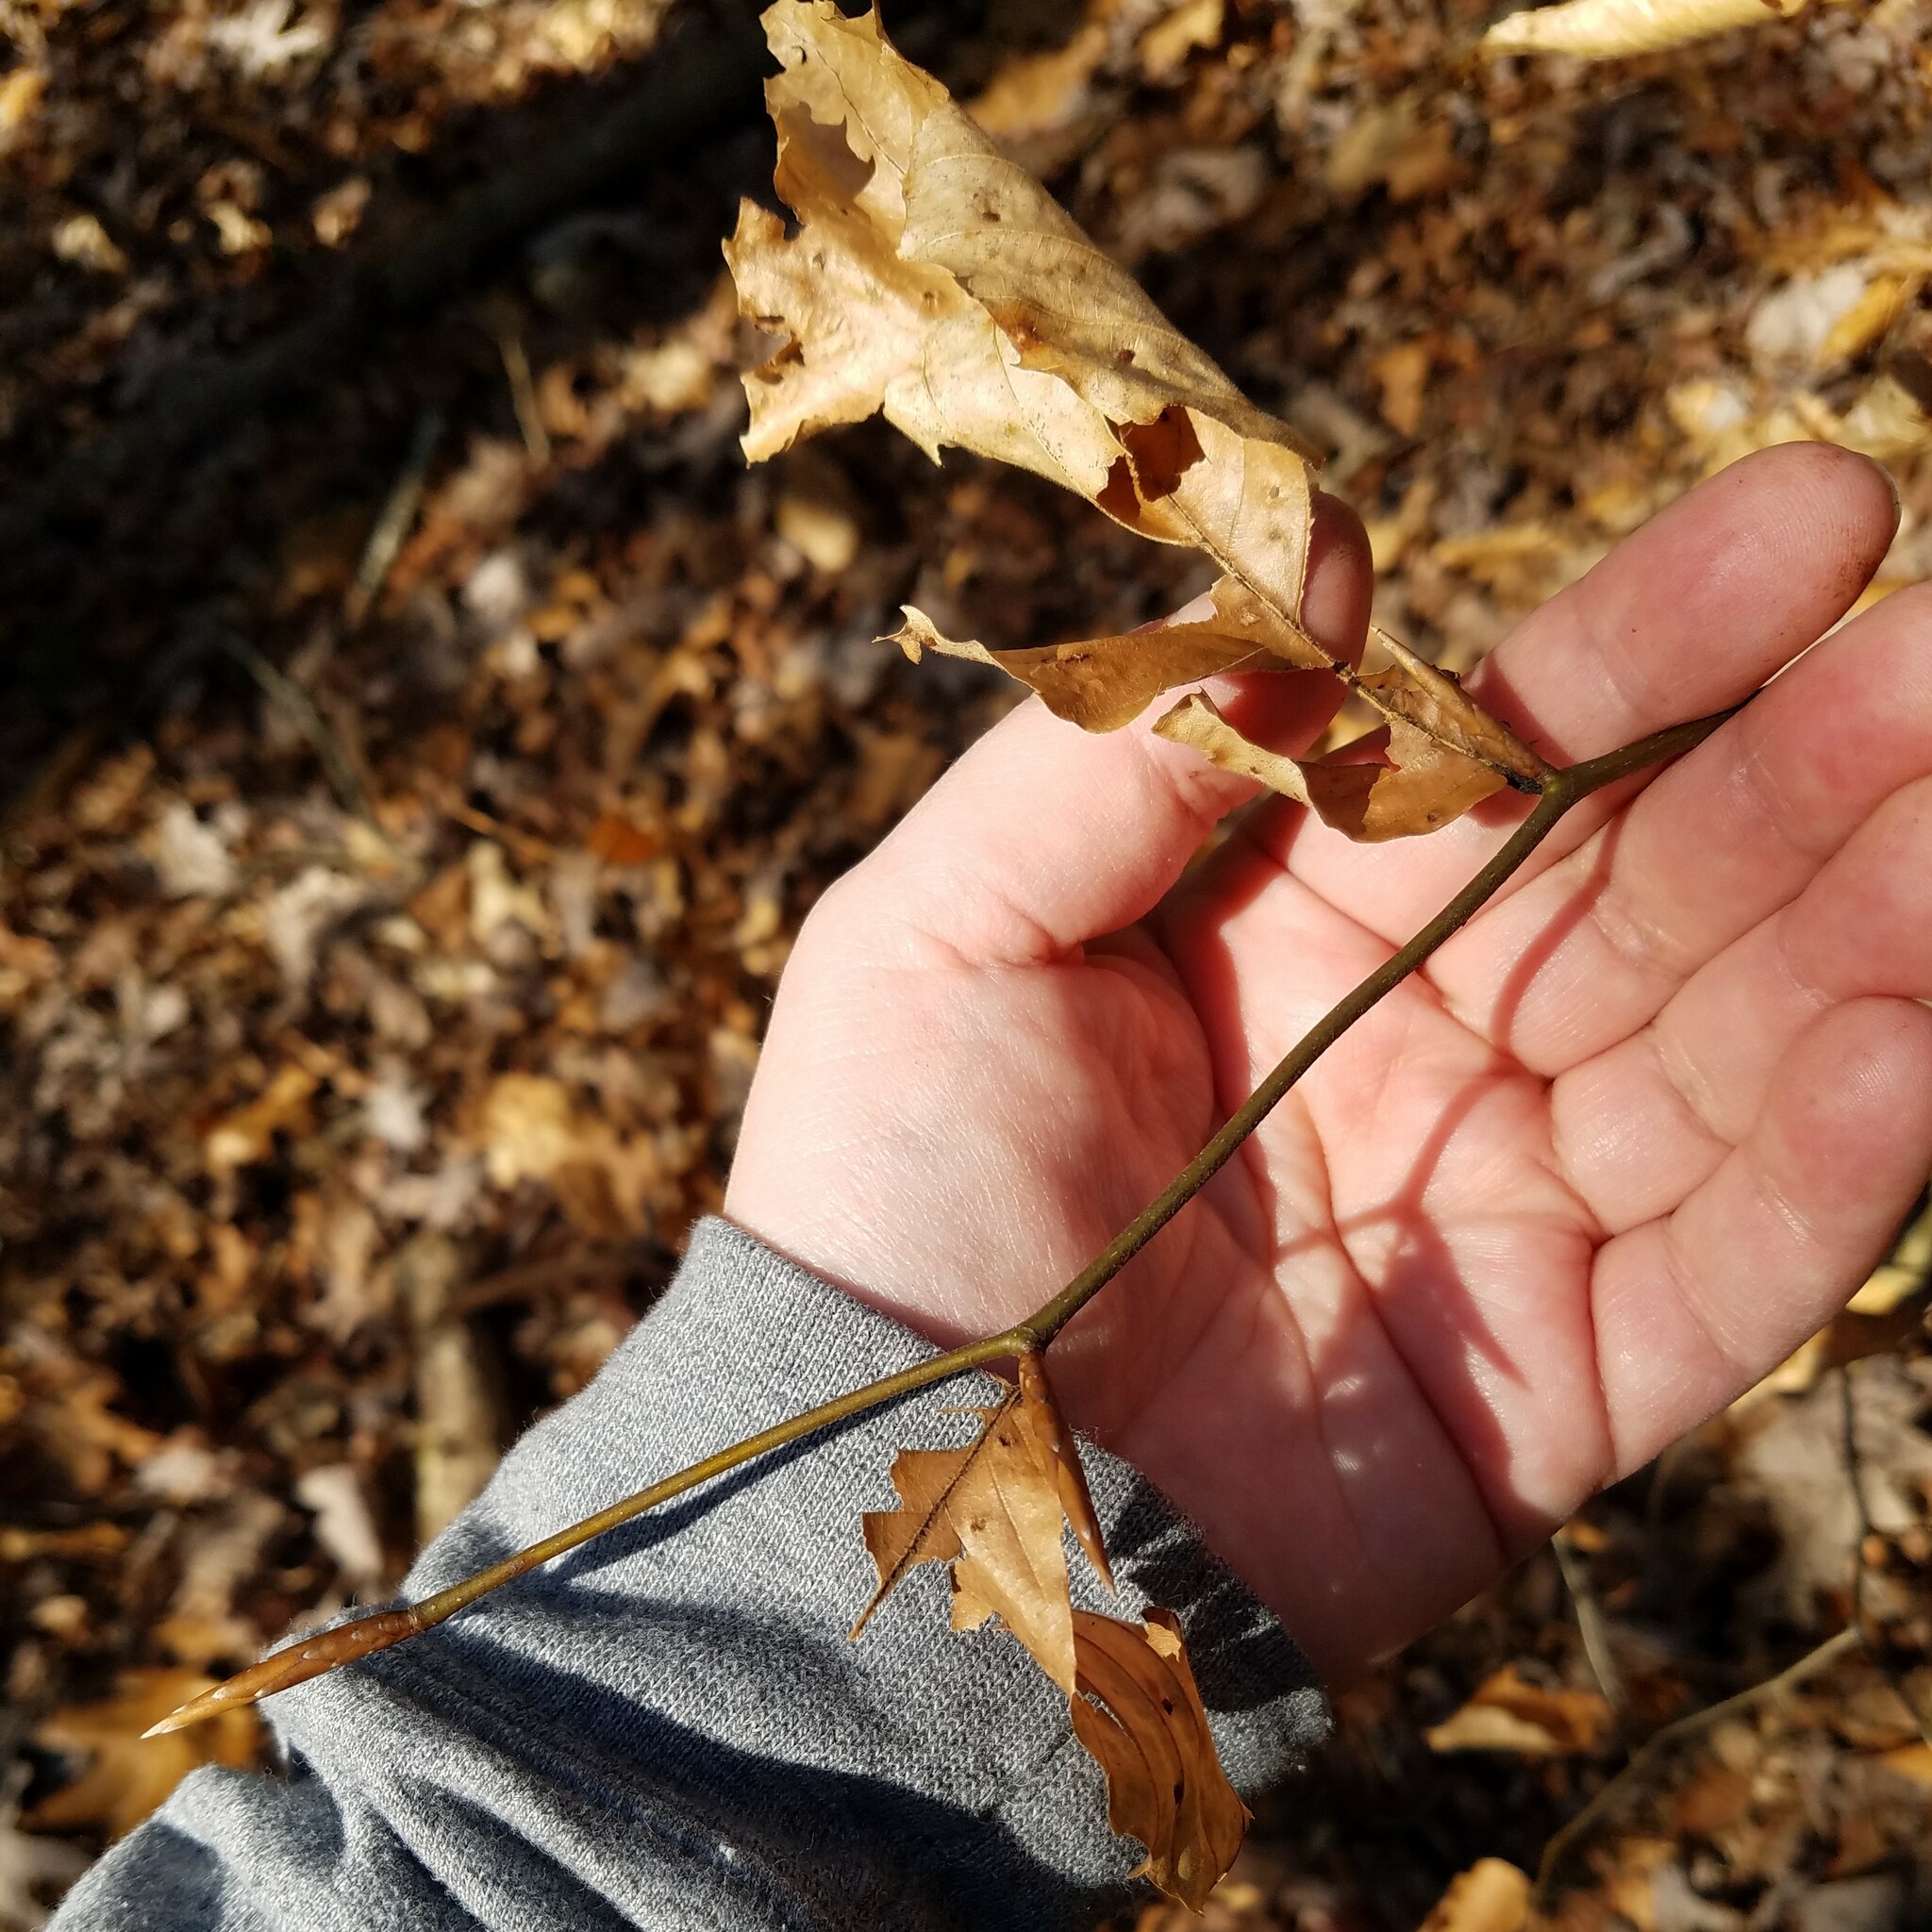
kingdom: Plantae
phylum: Tracheophyta
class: Magnoliopsida
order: Fagales
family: Fagaceae
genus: Fagus
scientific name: Fagus grandifolia
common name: American beech
